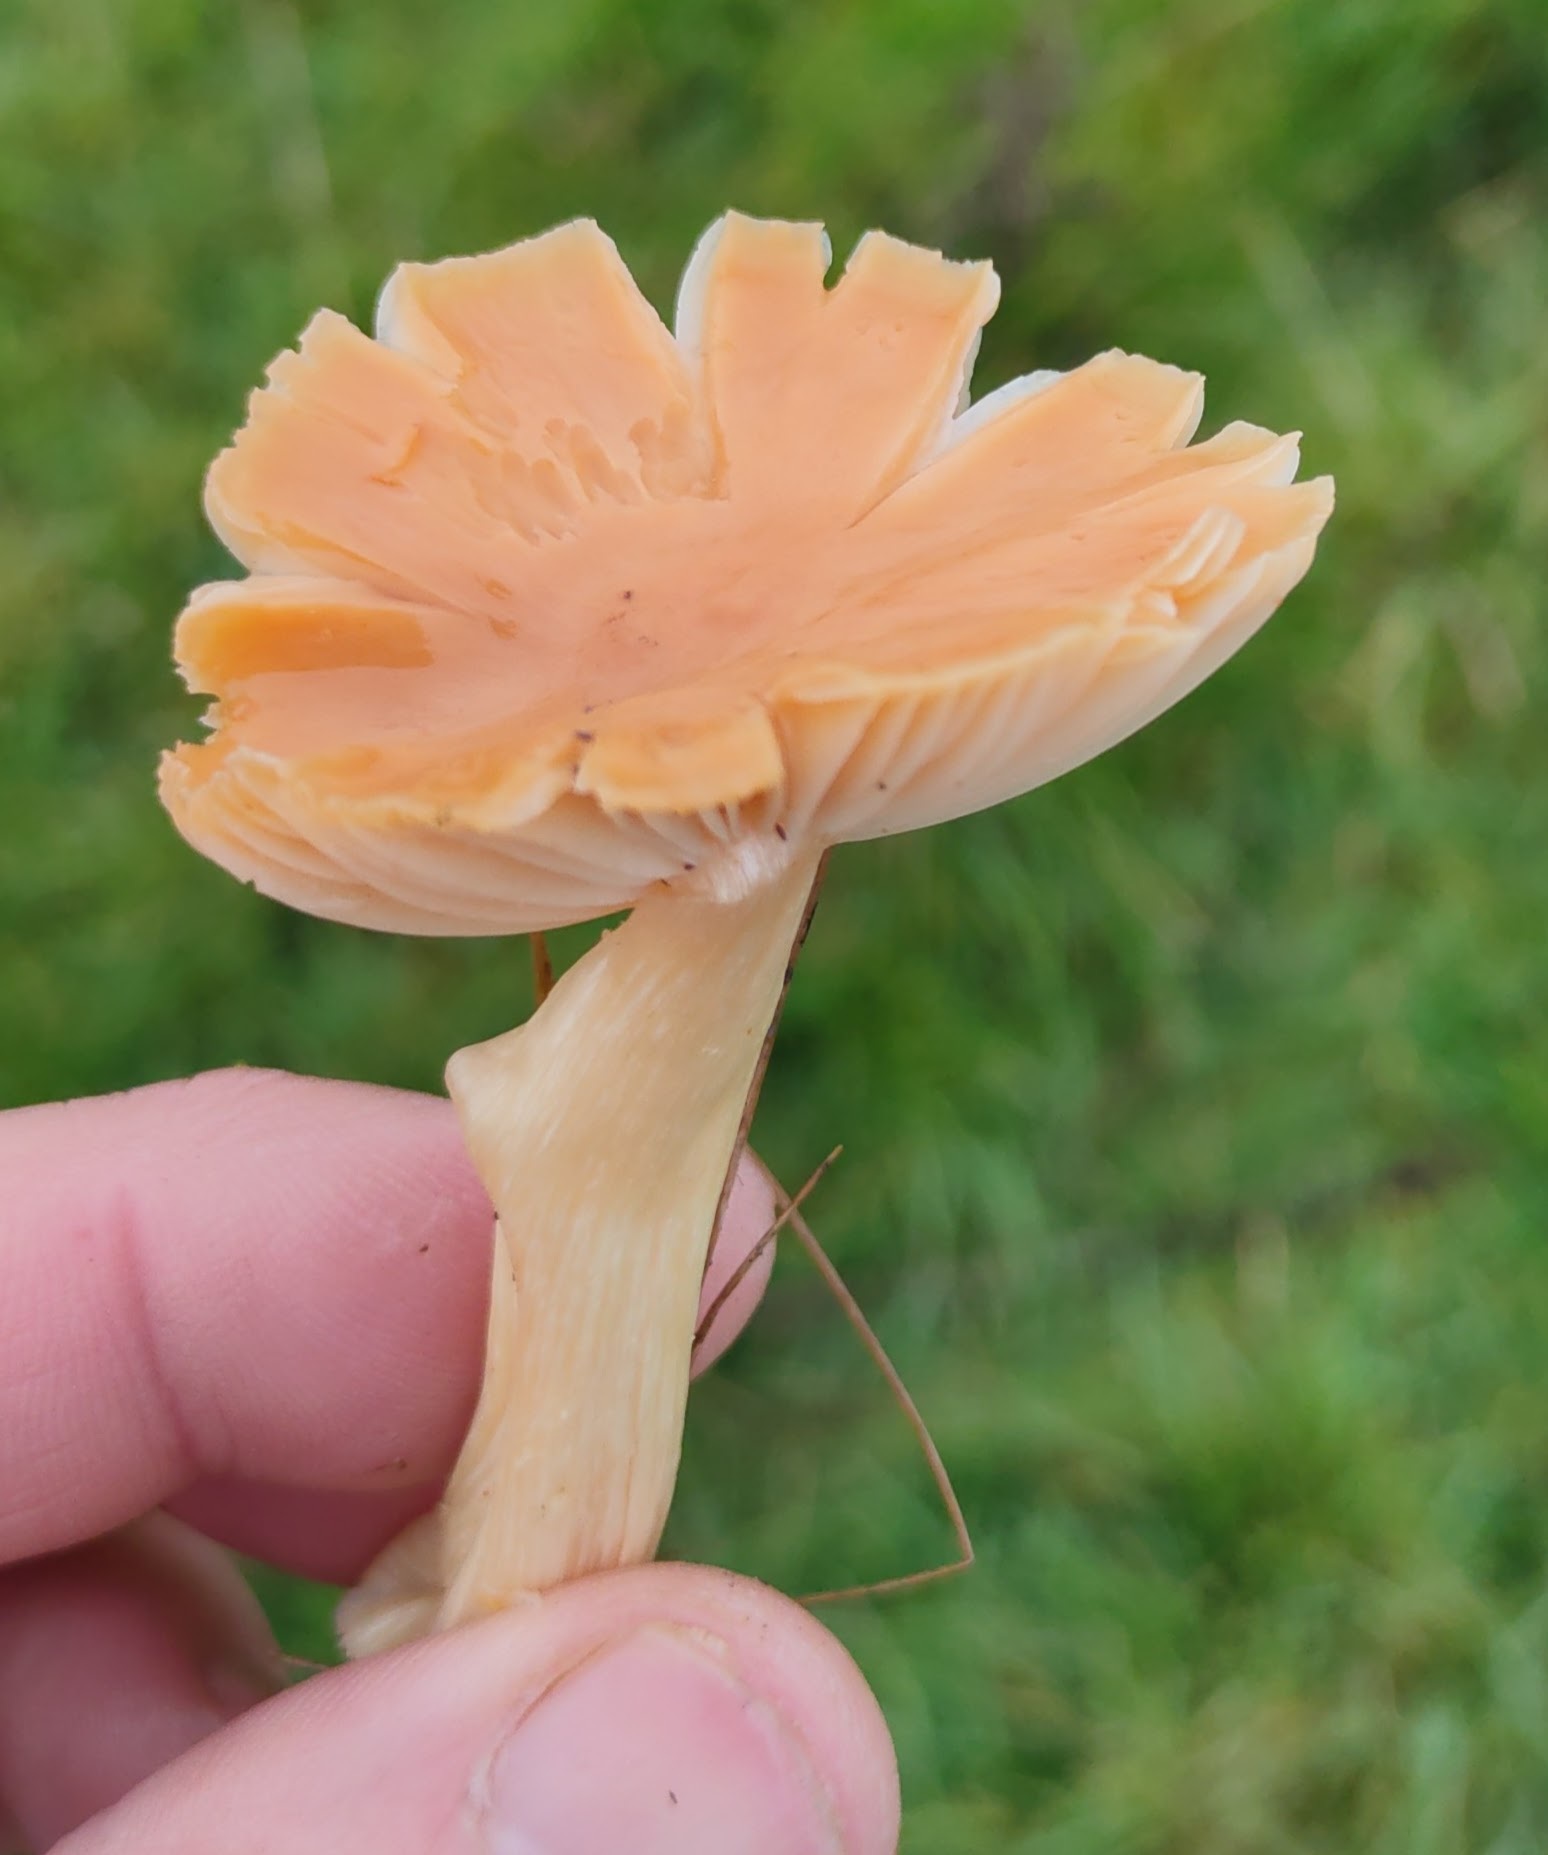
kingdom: Fungi
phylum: Basidiomycota
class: Agaricomycetes
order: Agaricales
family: Hygrophoraceae
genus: Cuphophyllus
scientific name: Cuphophyllus pratensis
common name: Meadow waxcap
